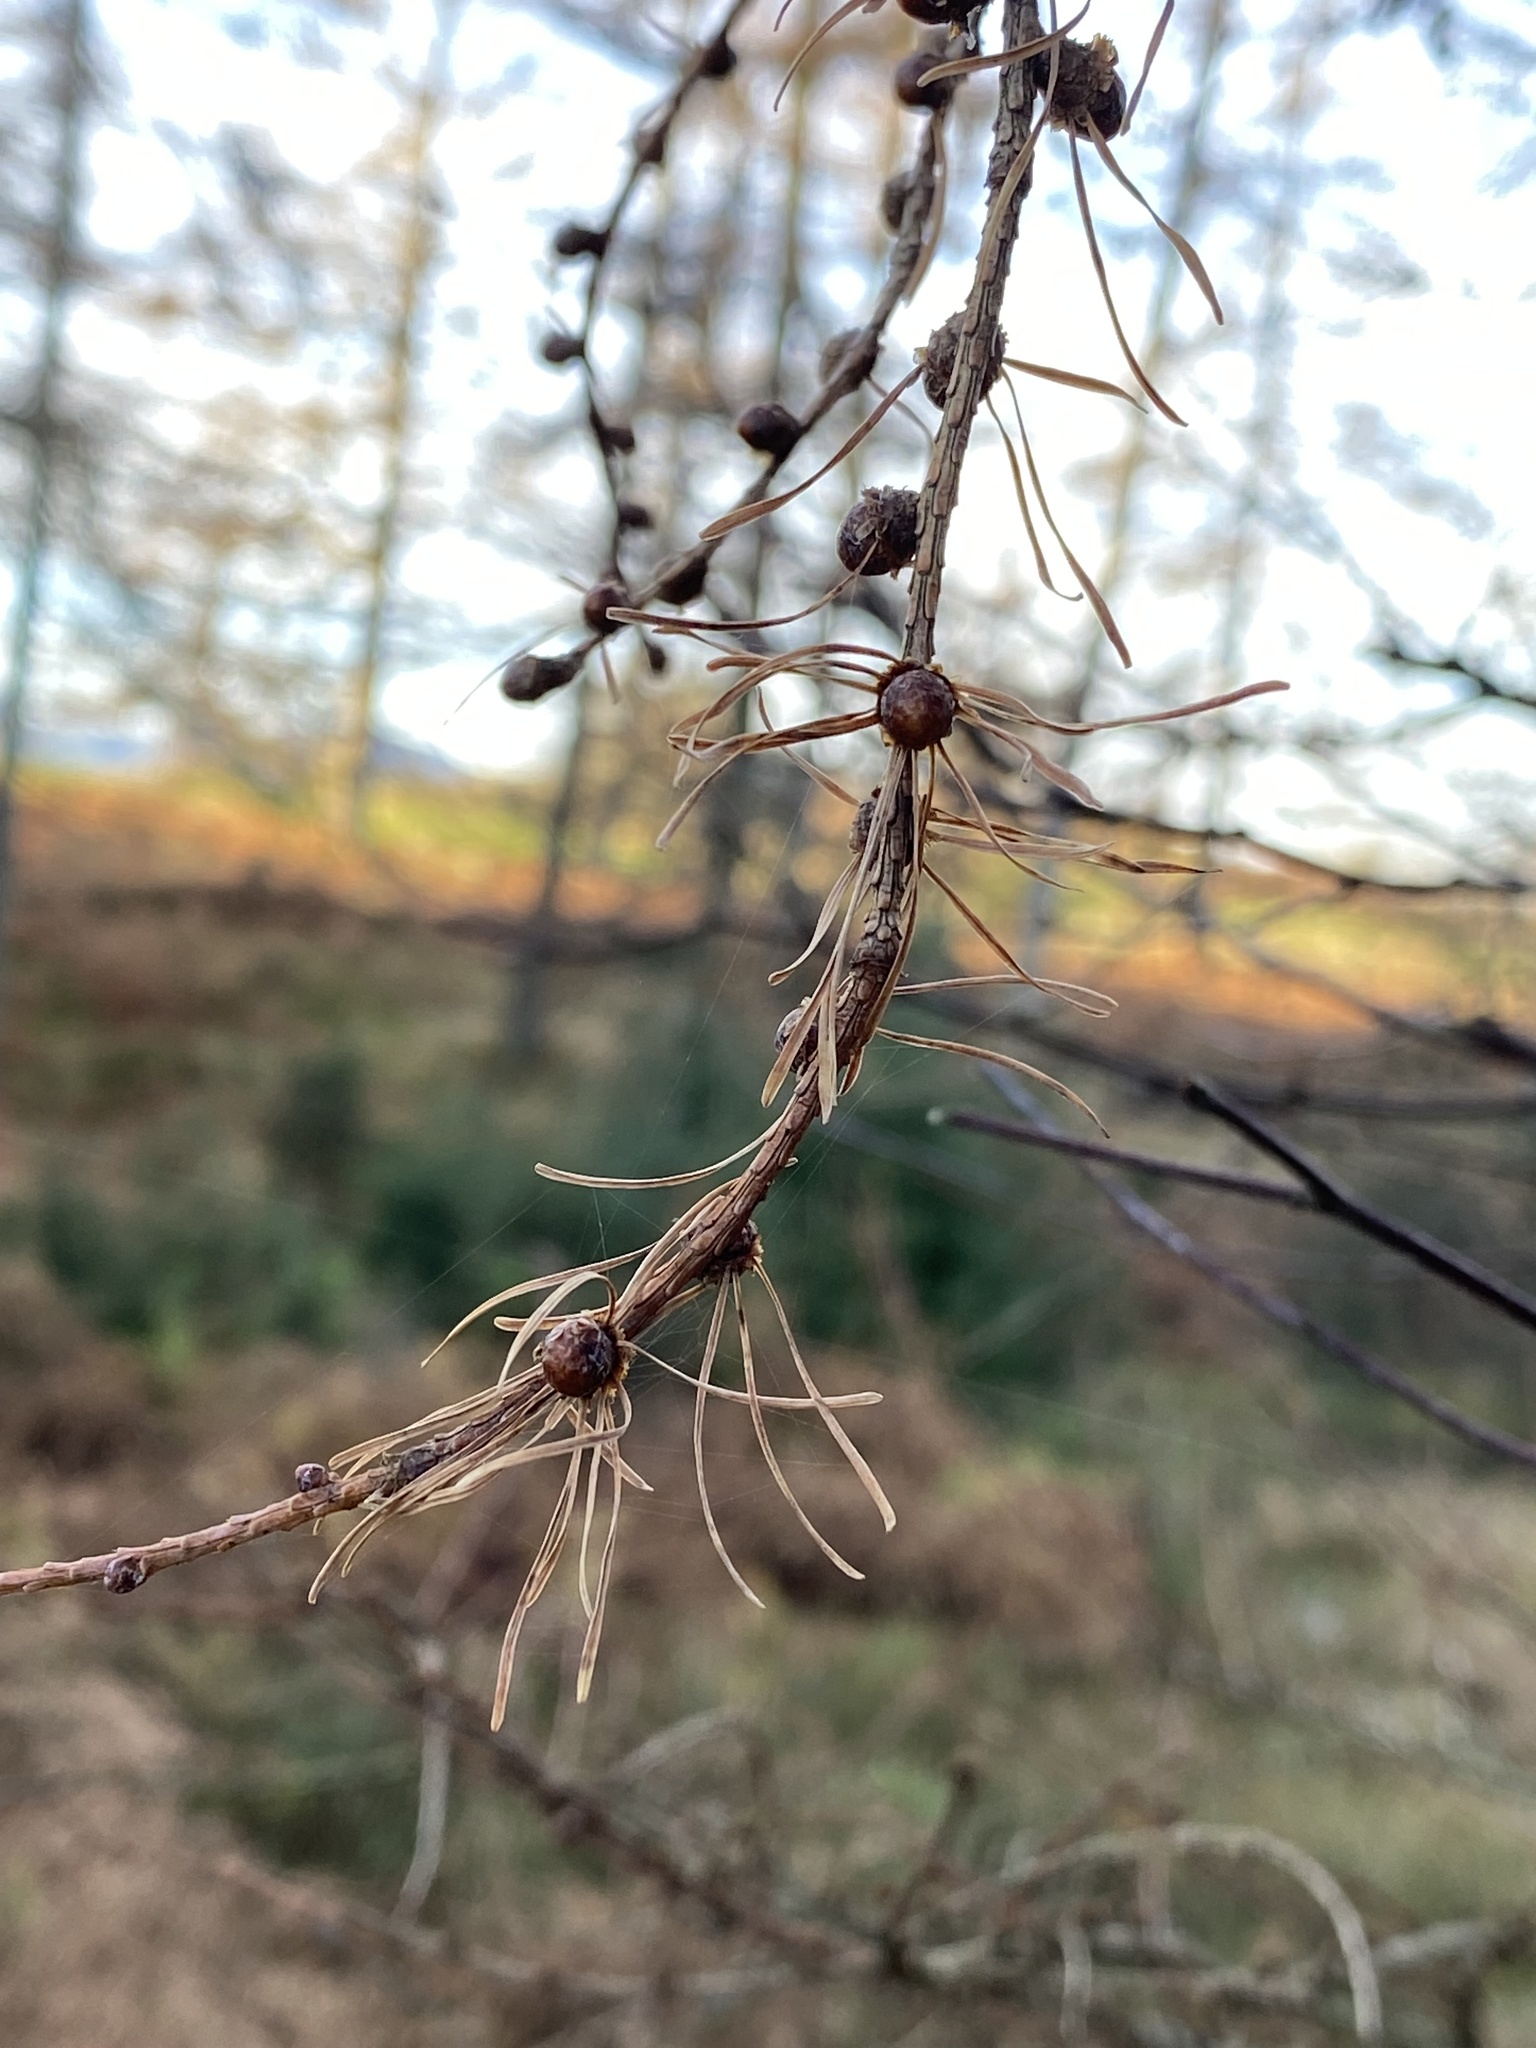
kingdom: Plantae
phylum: Tracheophyta
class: Pinopsida
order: Pinales
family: Pinaceae
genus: Larix
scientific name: Larix decidua
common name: European larch
